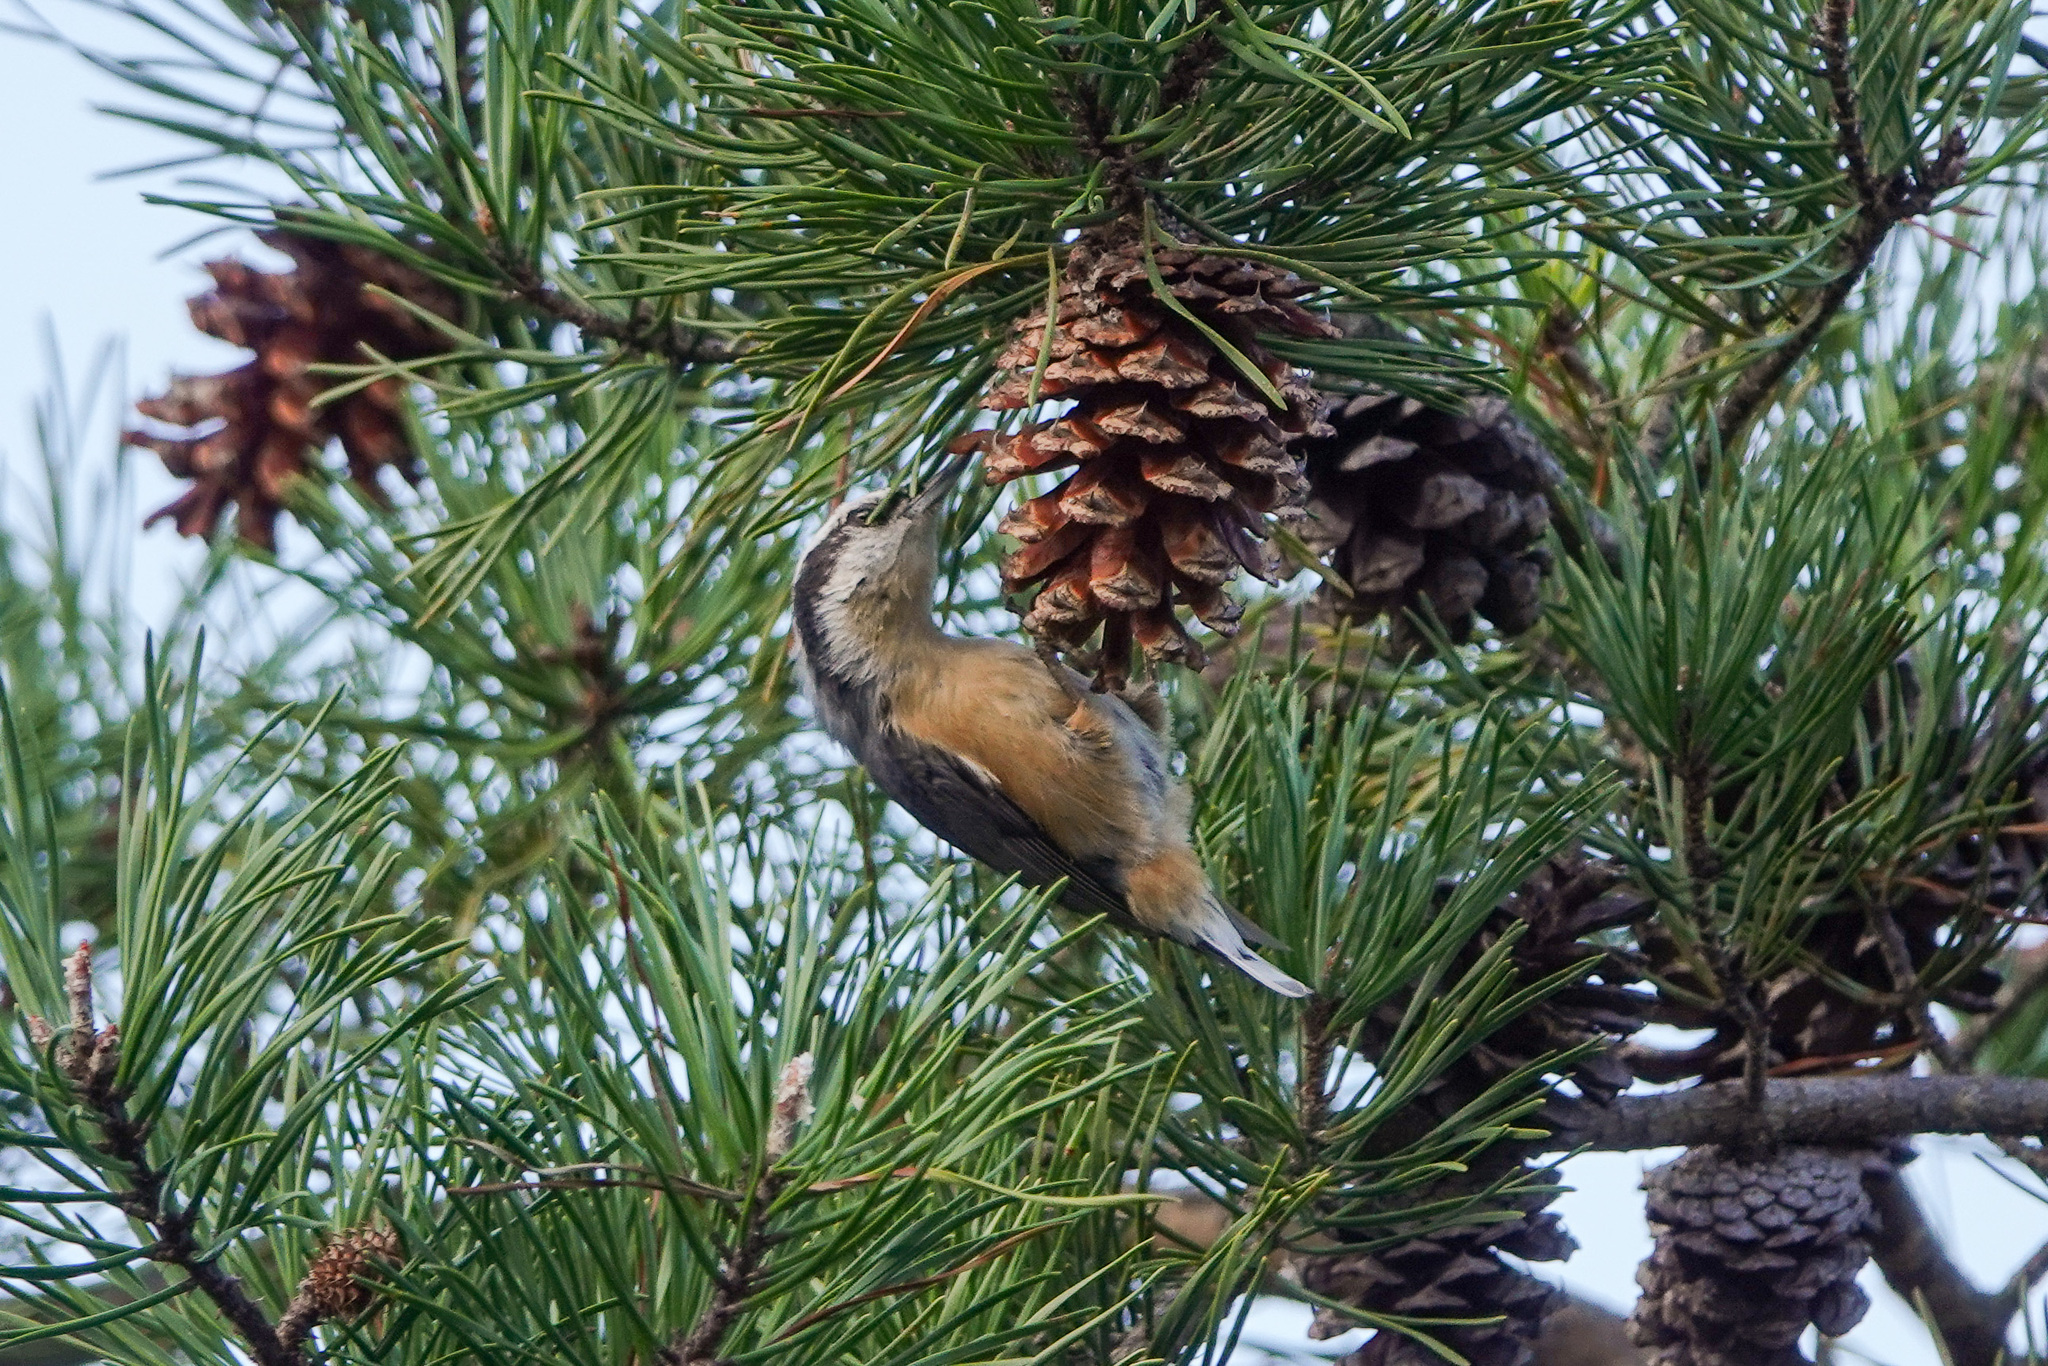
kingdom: Animalia
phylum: Chordata
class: Aves
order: Passeriformes
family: Sittidae
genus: Sitta
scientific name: Sitta canadensis
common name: Red-breasted nuthatch
